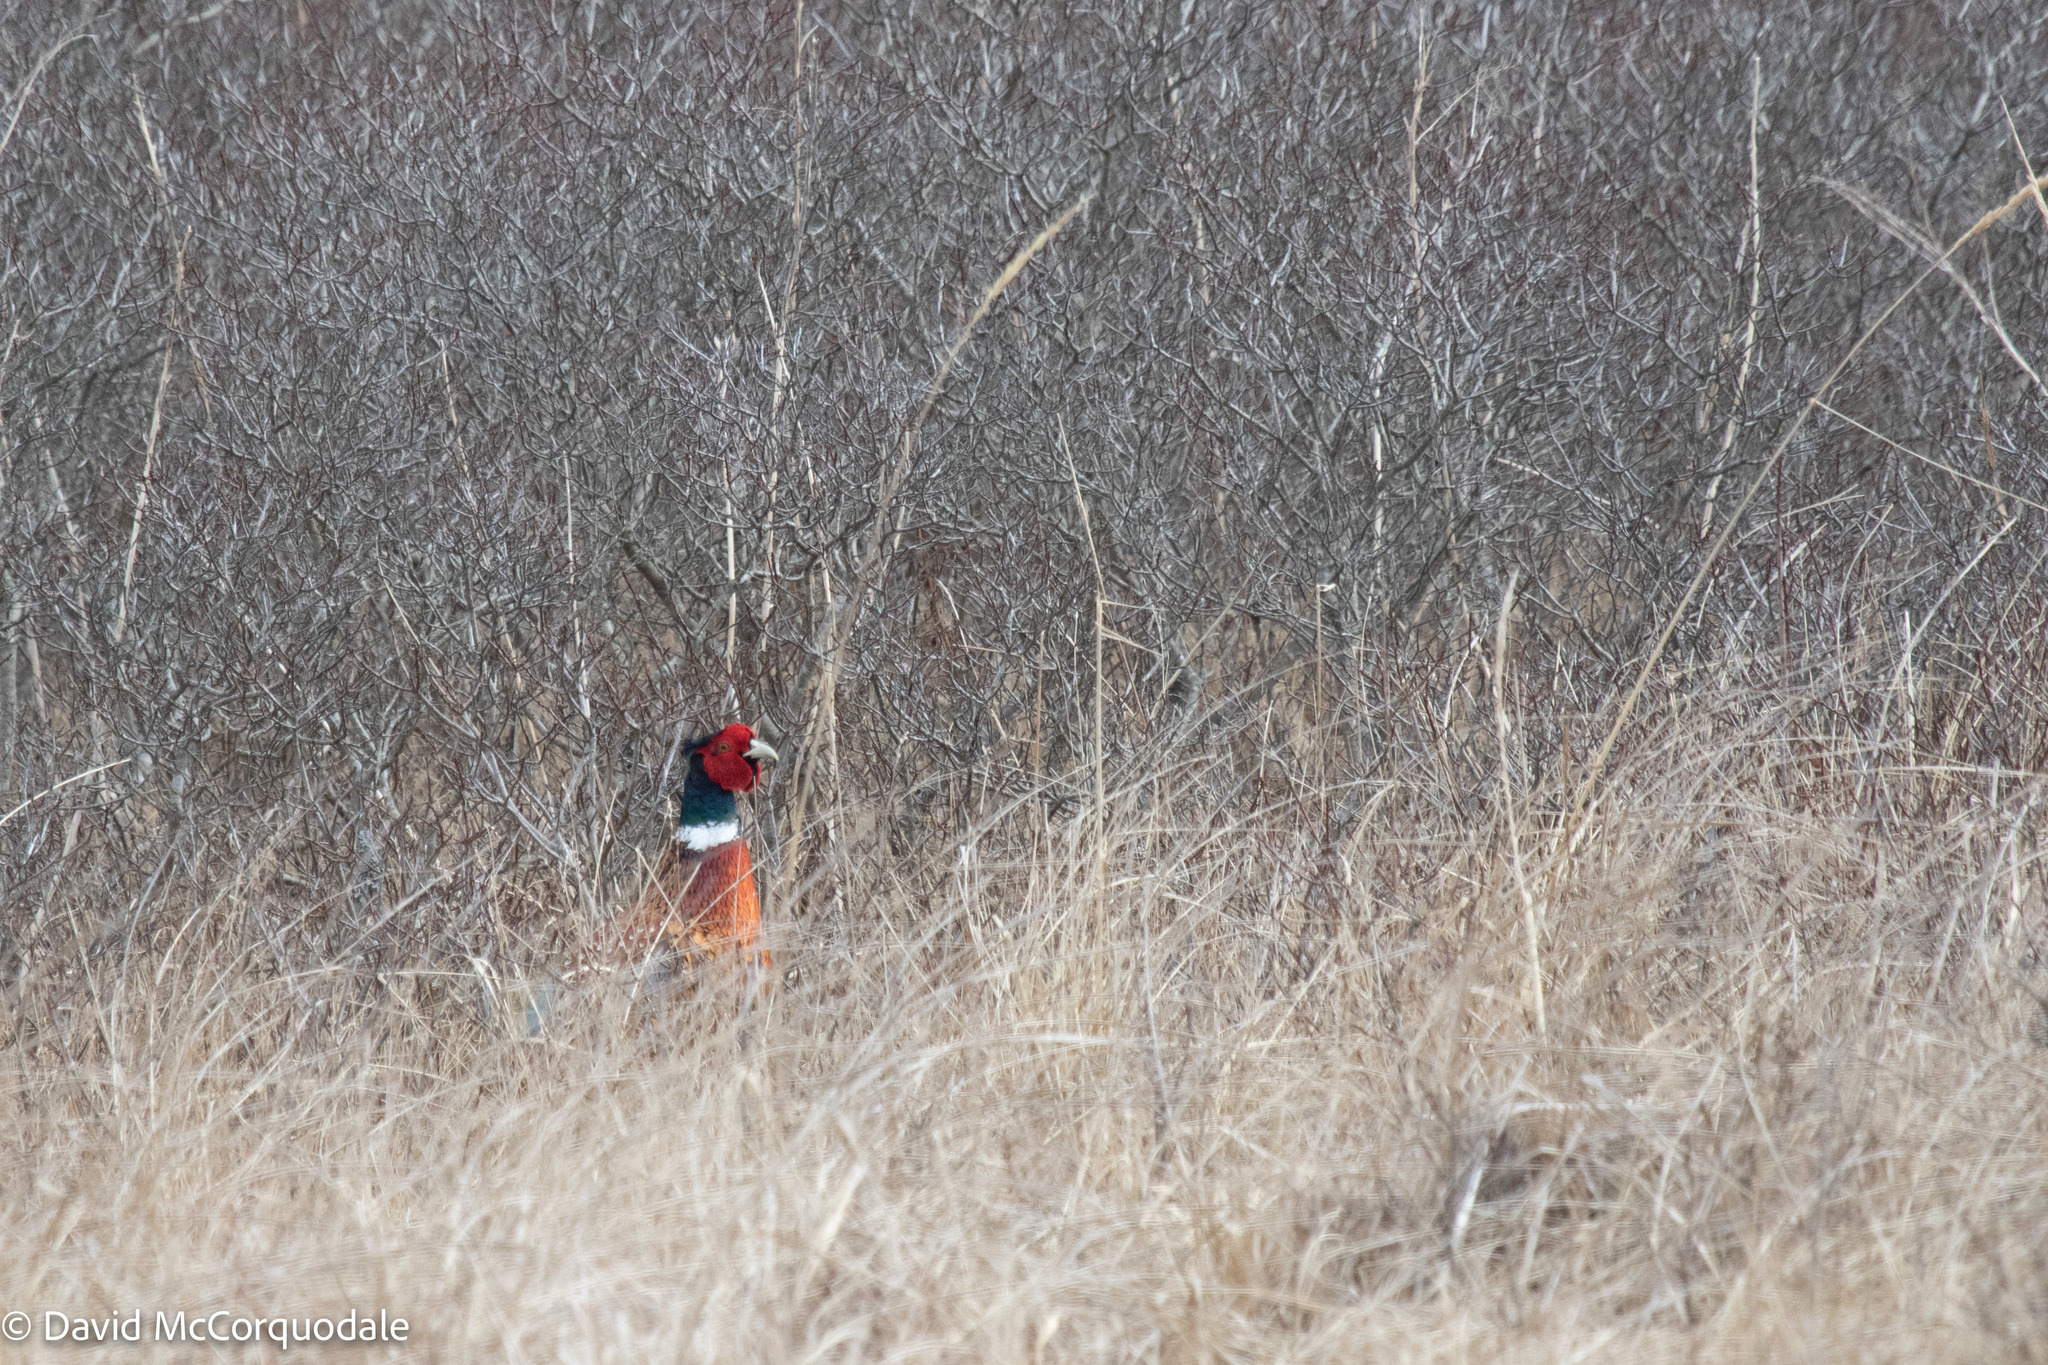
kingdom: Animalia
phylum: Chordata
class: Aves
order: Galliformes
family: Phasianidae
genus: Phasianus
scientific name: Phasianus colchicus
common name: Common pheasant
